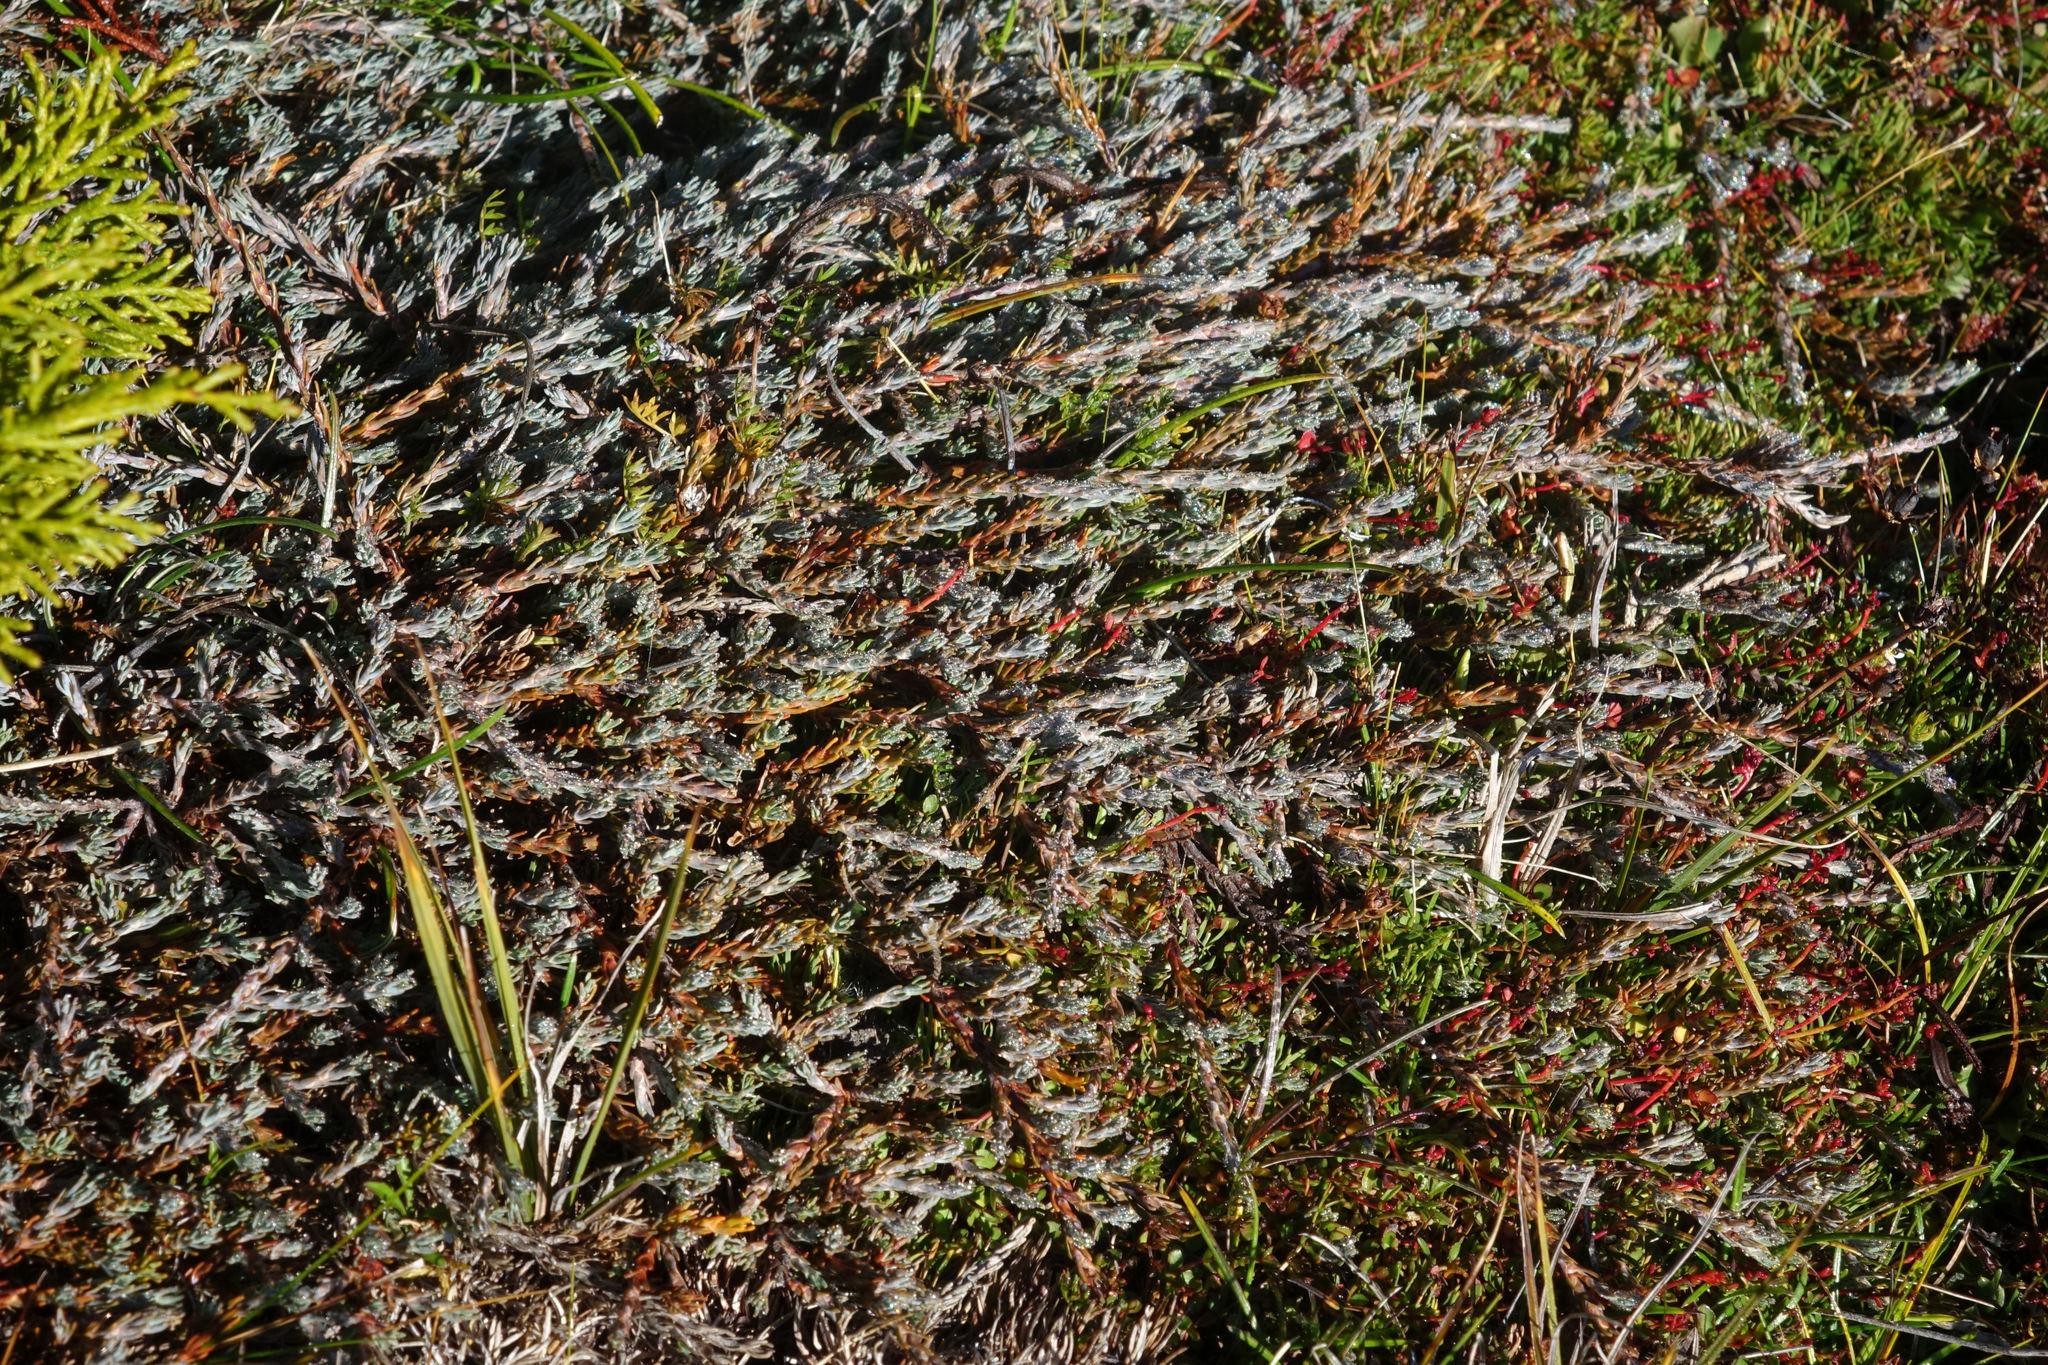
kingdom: Plantae
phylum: Tracheophyta
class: Magnoliopsida
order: Ericales
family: Ericaceae
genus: Dracophyllum
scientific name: Dracophyllum prostratum
